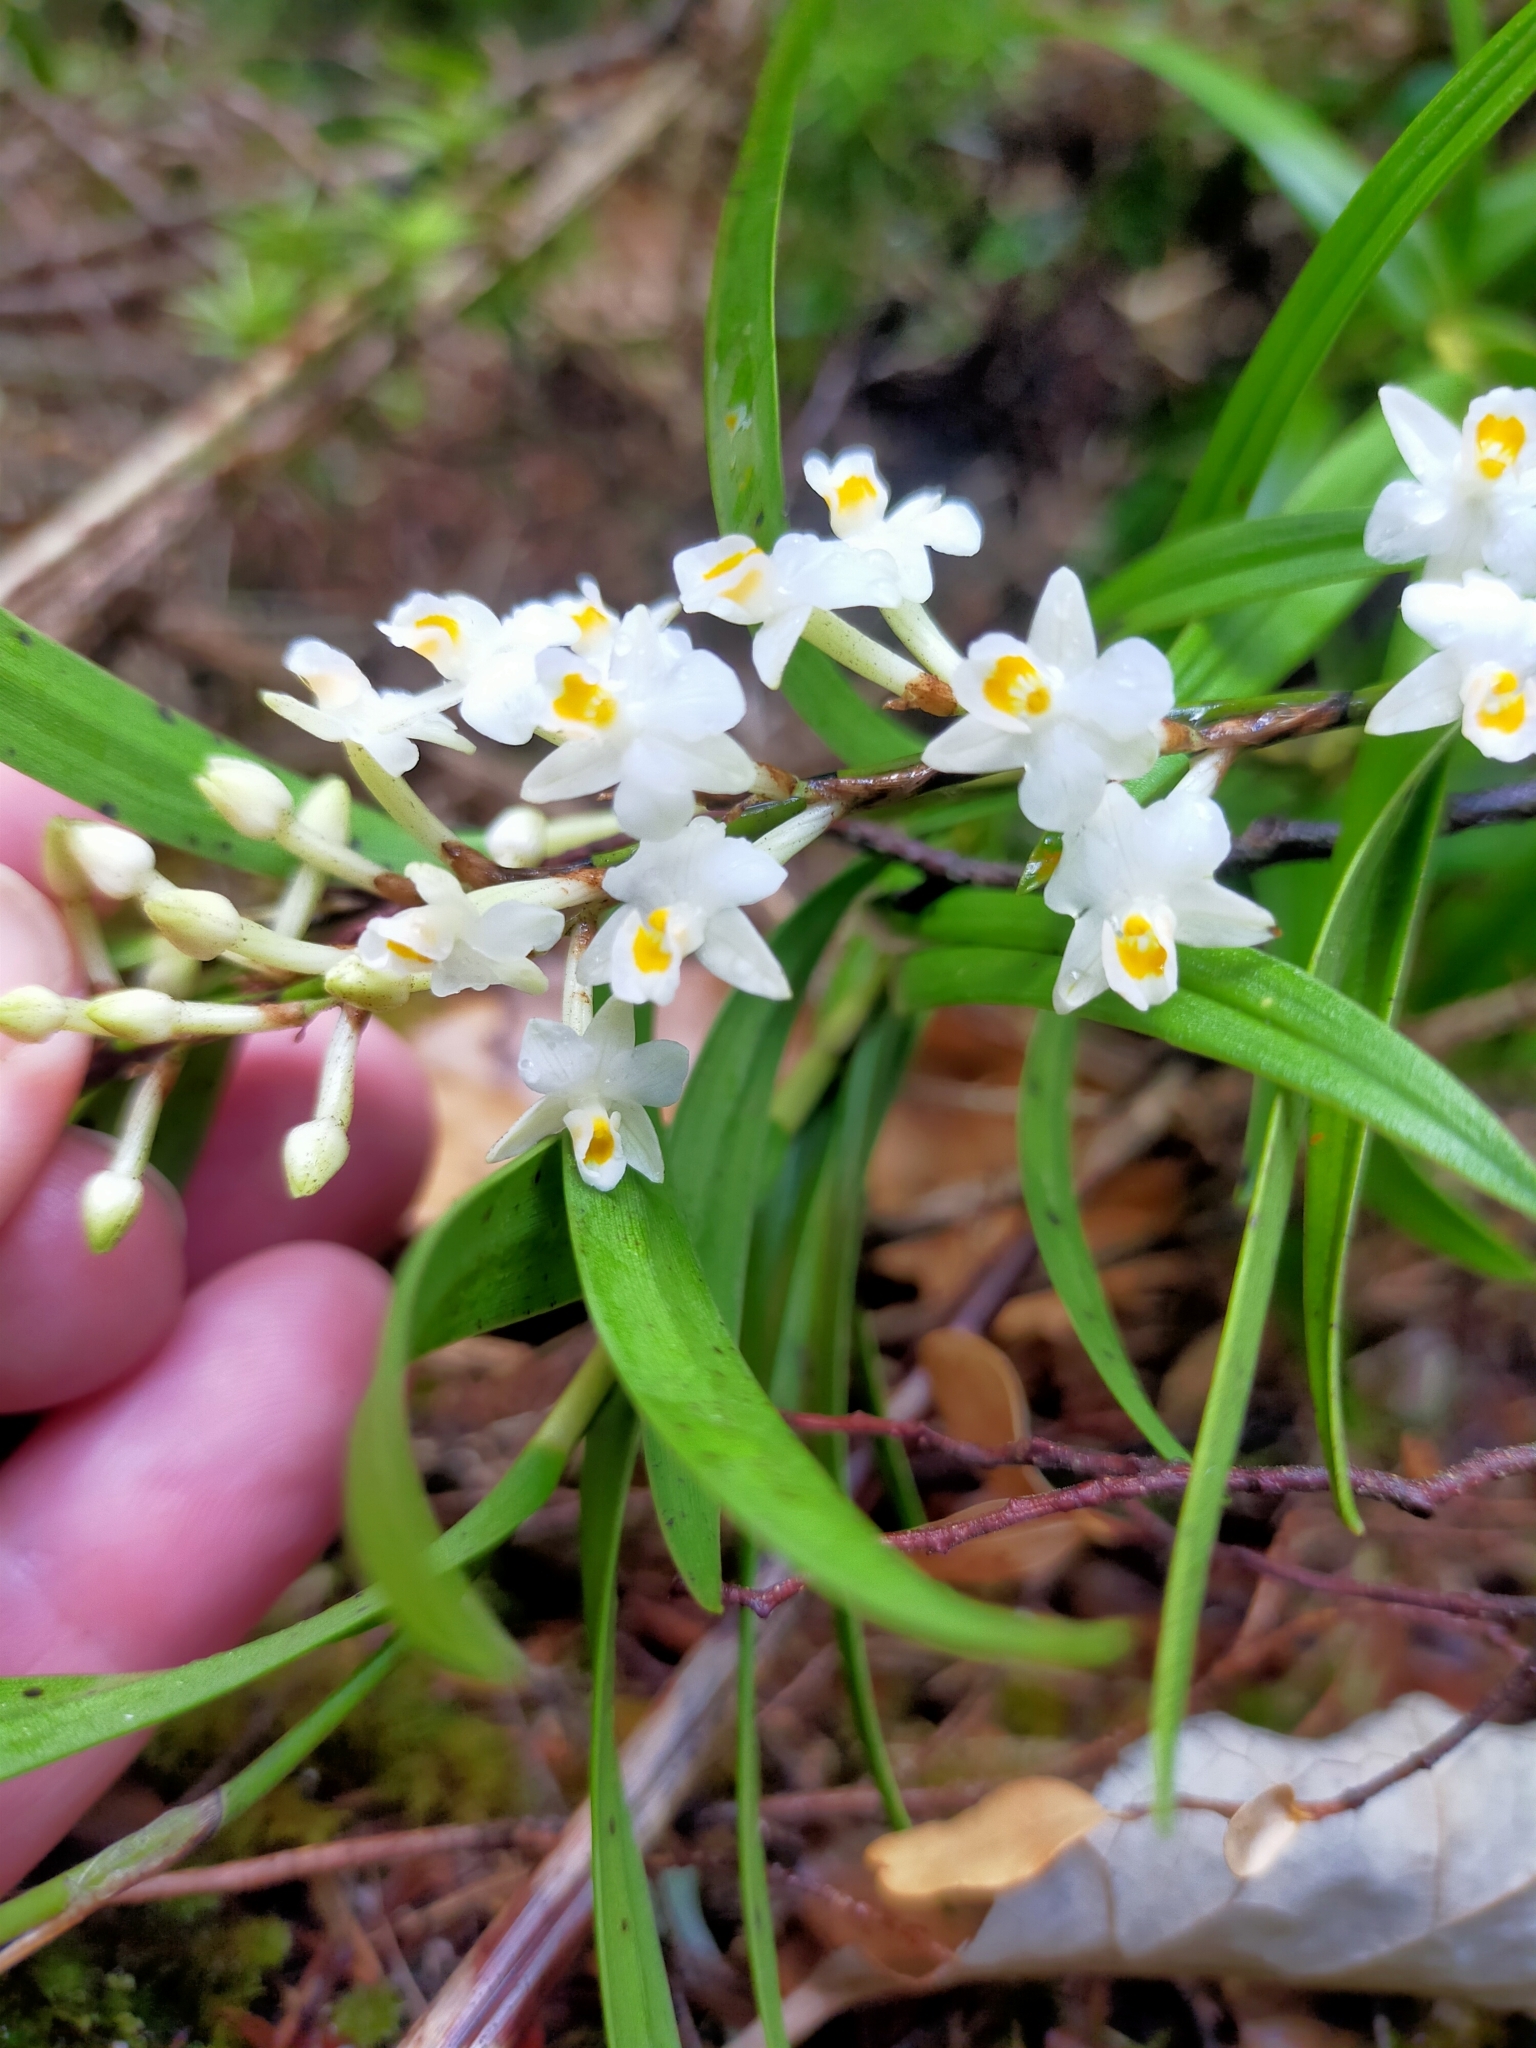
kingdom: Plantae
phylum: Tracheophyta
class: Liliopsida
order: Asparagales
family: Orchidaceae
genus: Earina
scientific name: Earina autumnalis
